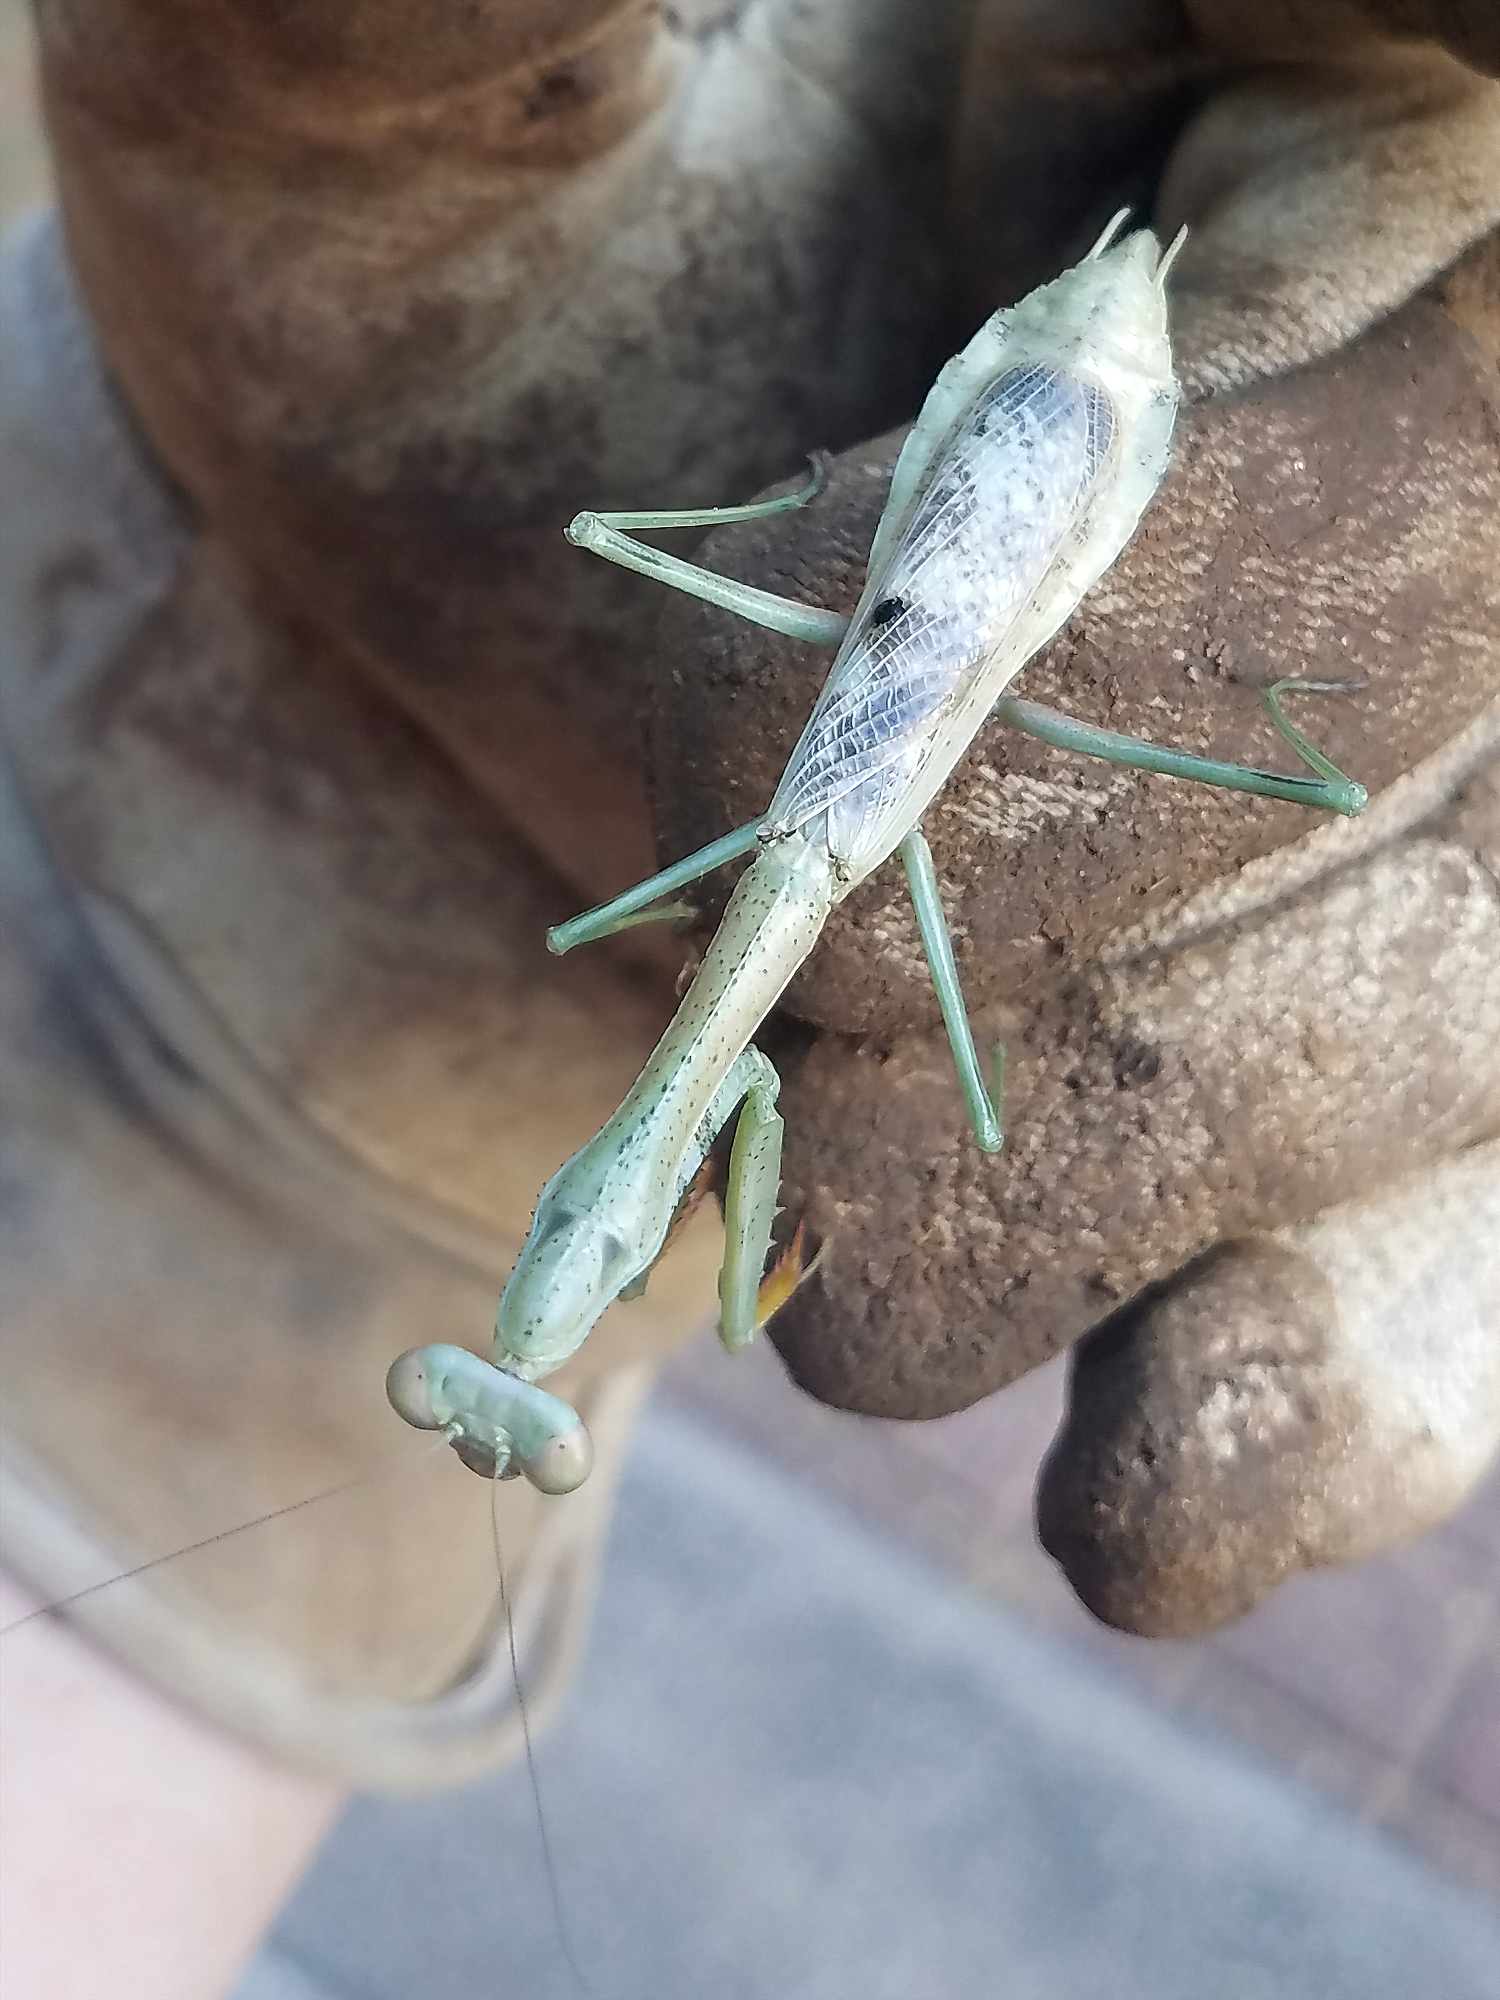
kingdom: Animalia
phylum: Arthropoda
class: Insecta
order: Mantodea
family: Mantidae
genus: Stagmomantis
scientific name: Stagmomantis carolina
